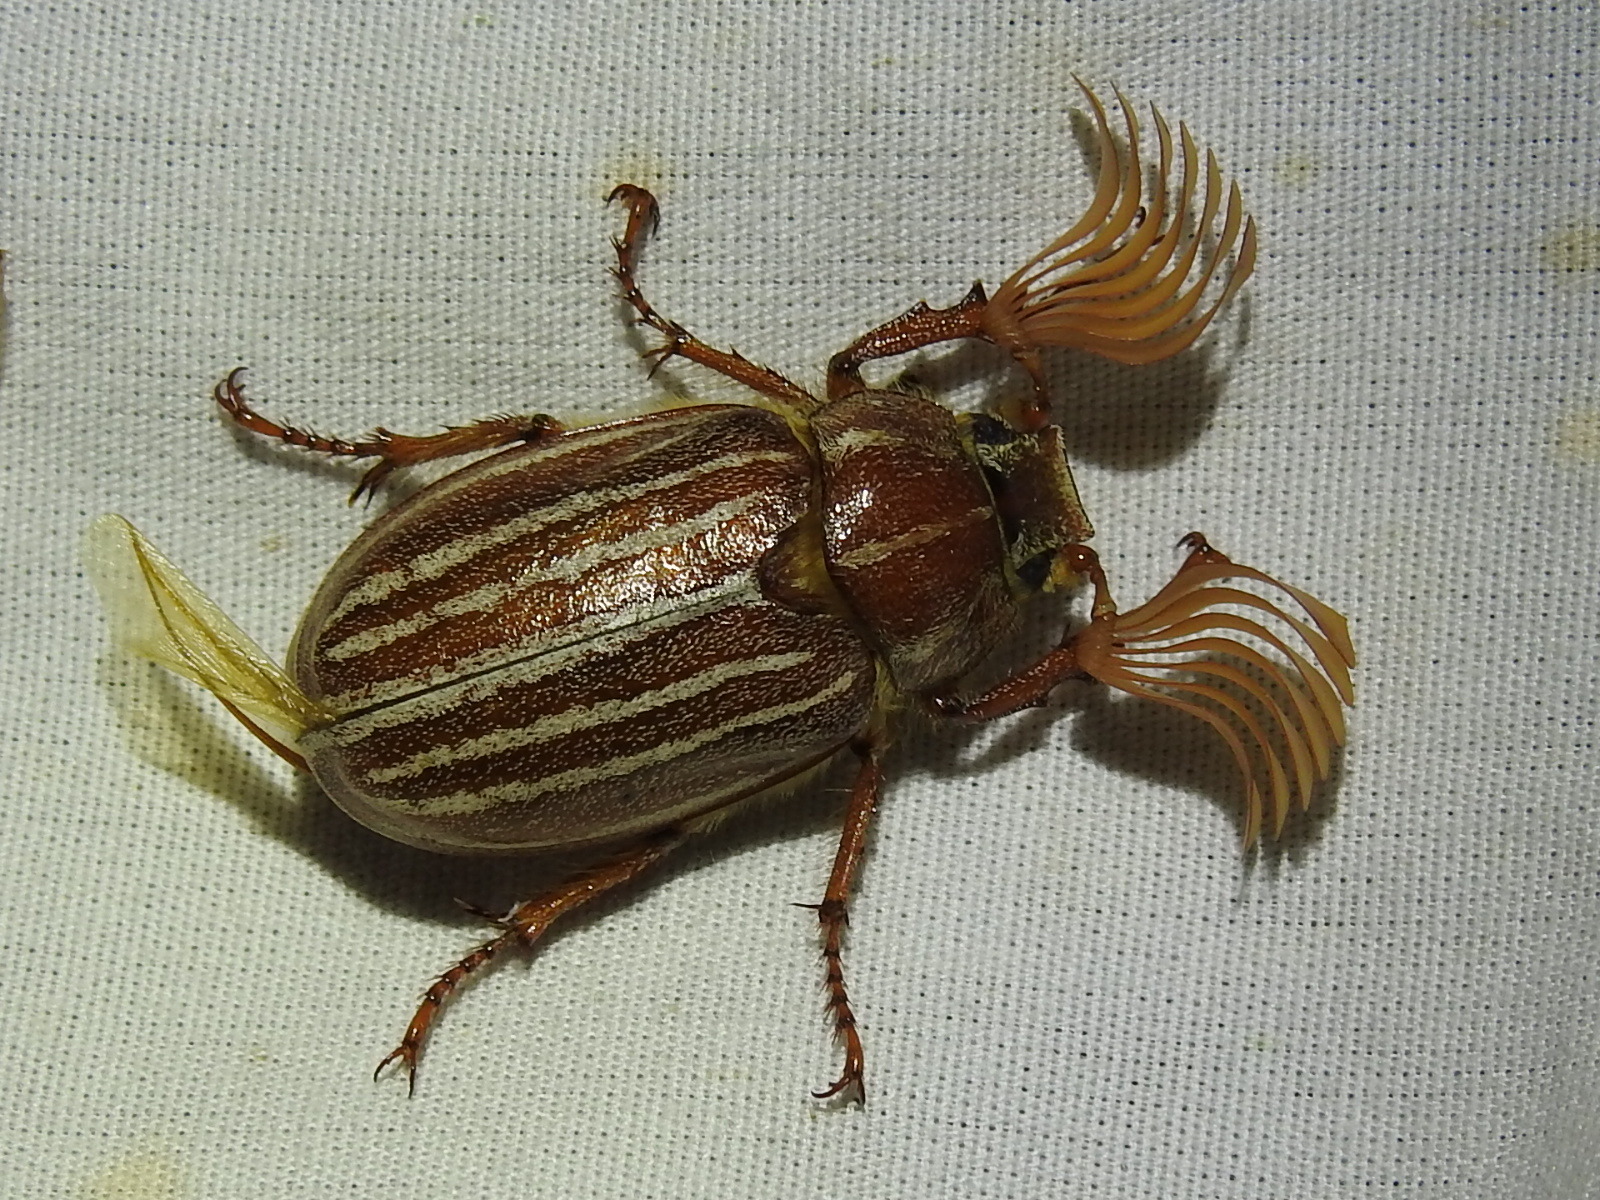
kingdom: Animalia
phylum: Arthropoda
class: Insecta
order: Coleoptera
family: Scarabaeidae
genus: Polyphylla
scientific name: Polyphylla monahansensis
